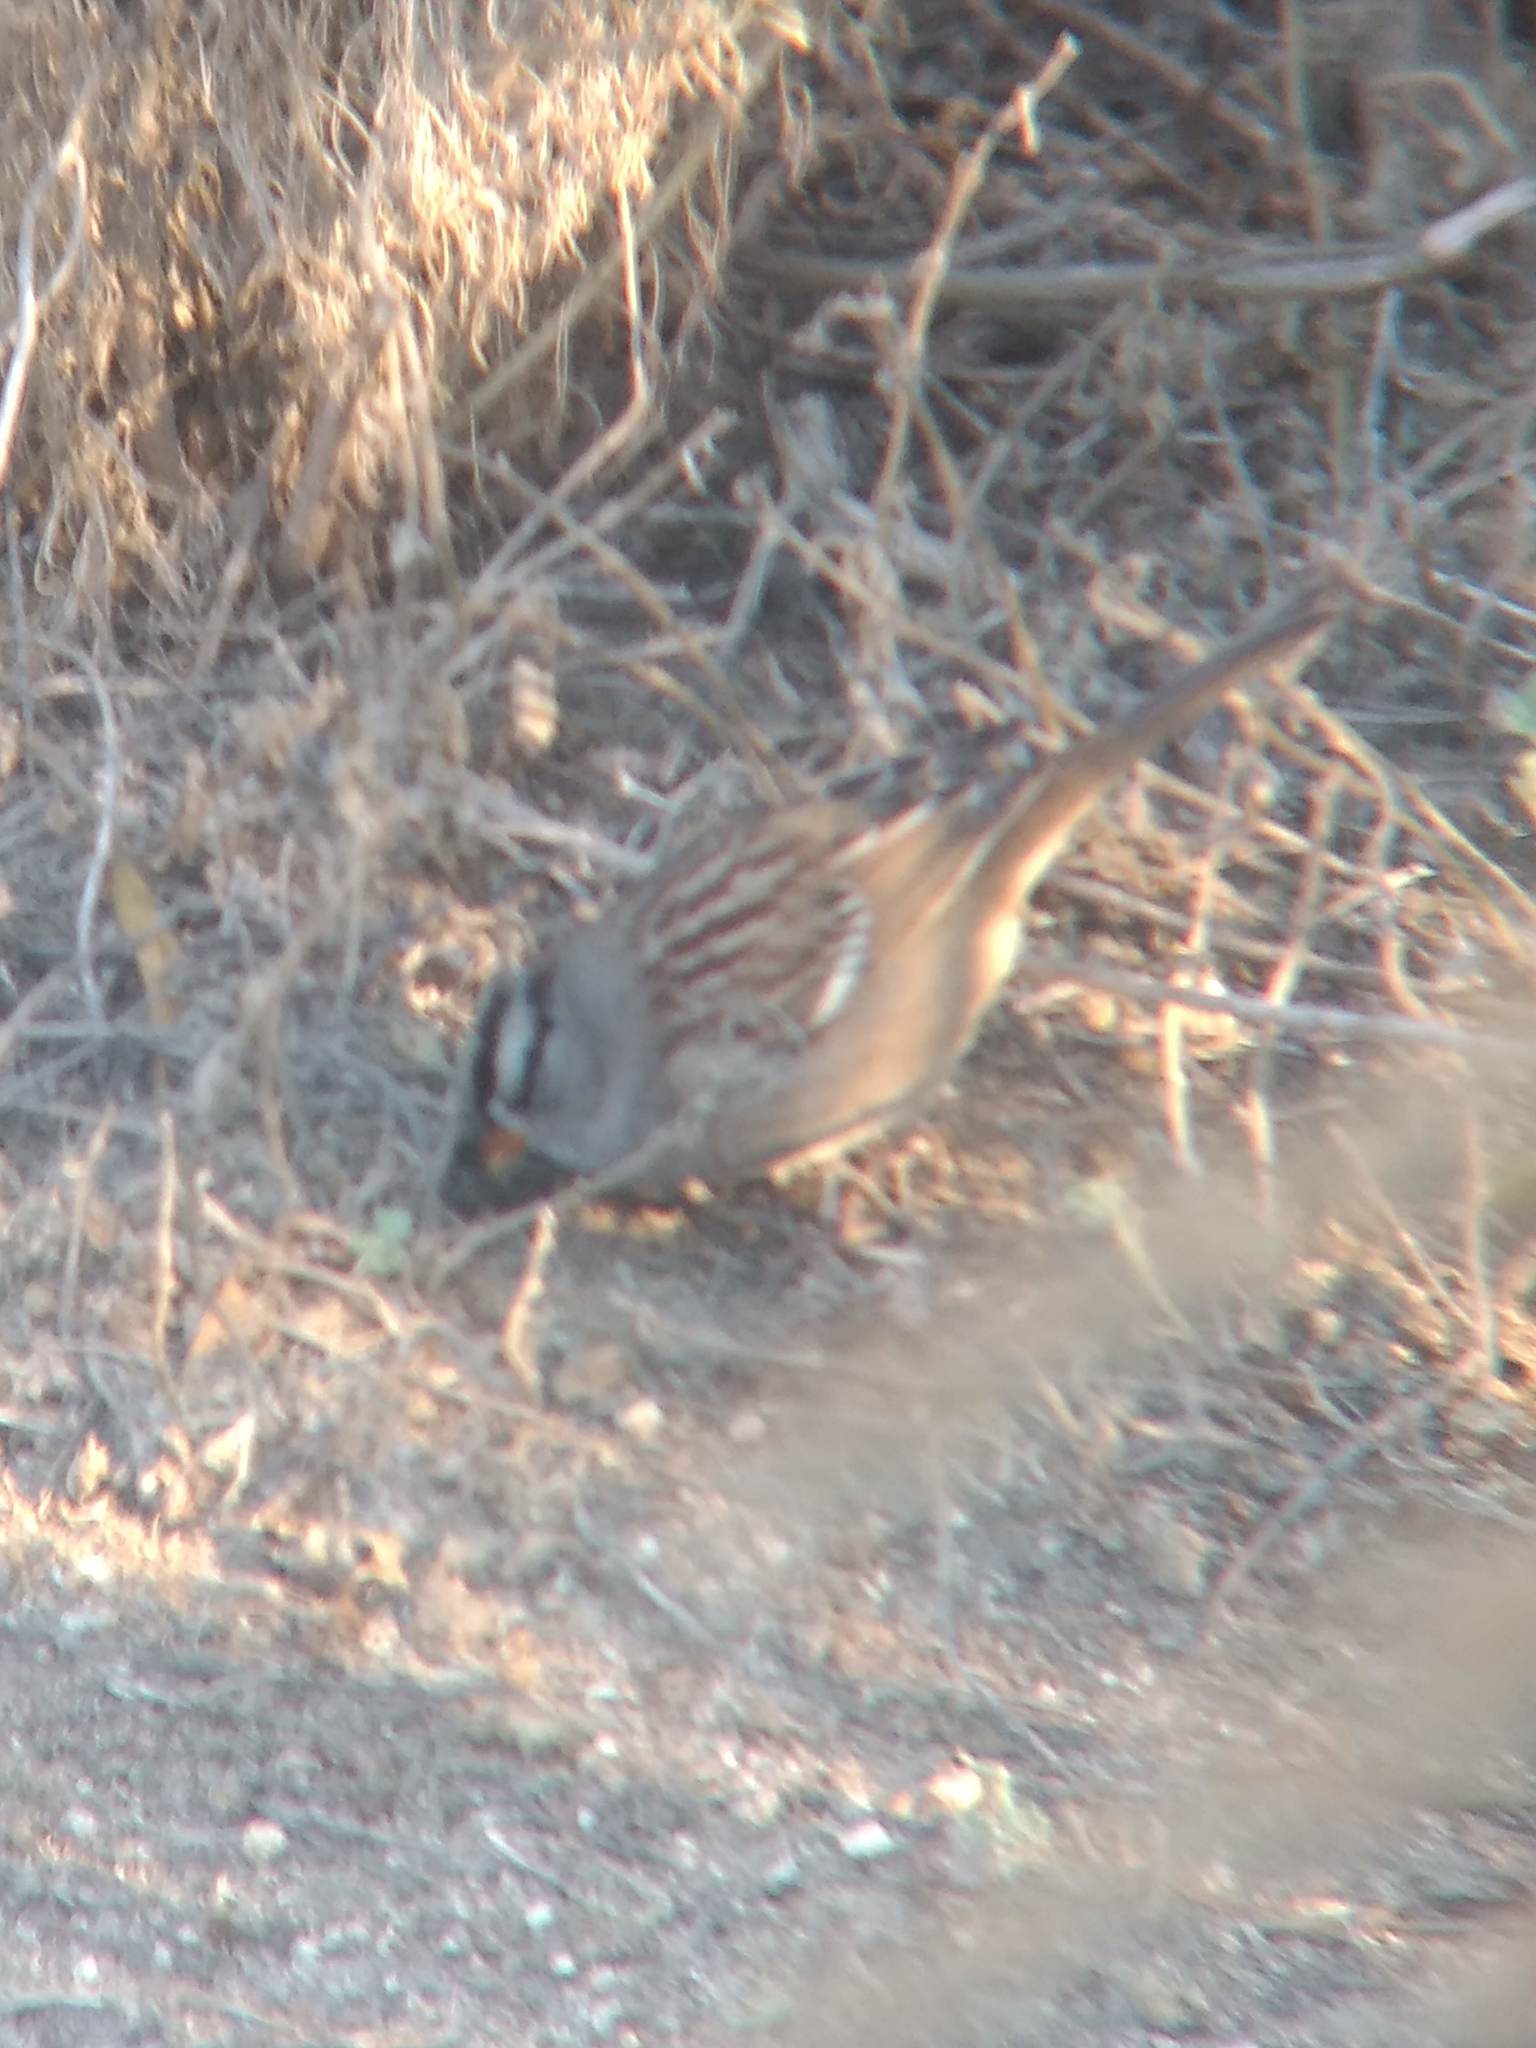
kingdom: Animalia
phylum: Chordata
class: Aves
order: Passeriformes
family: Passerellidae
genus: Zonotrichia
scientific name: Zonotrichia leucophrys
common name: White-crowned sparrow
